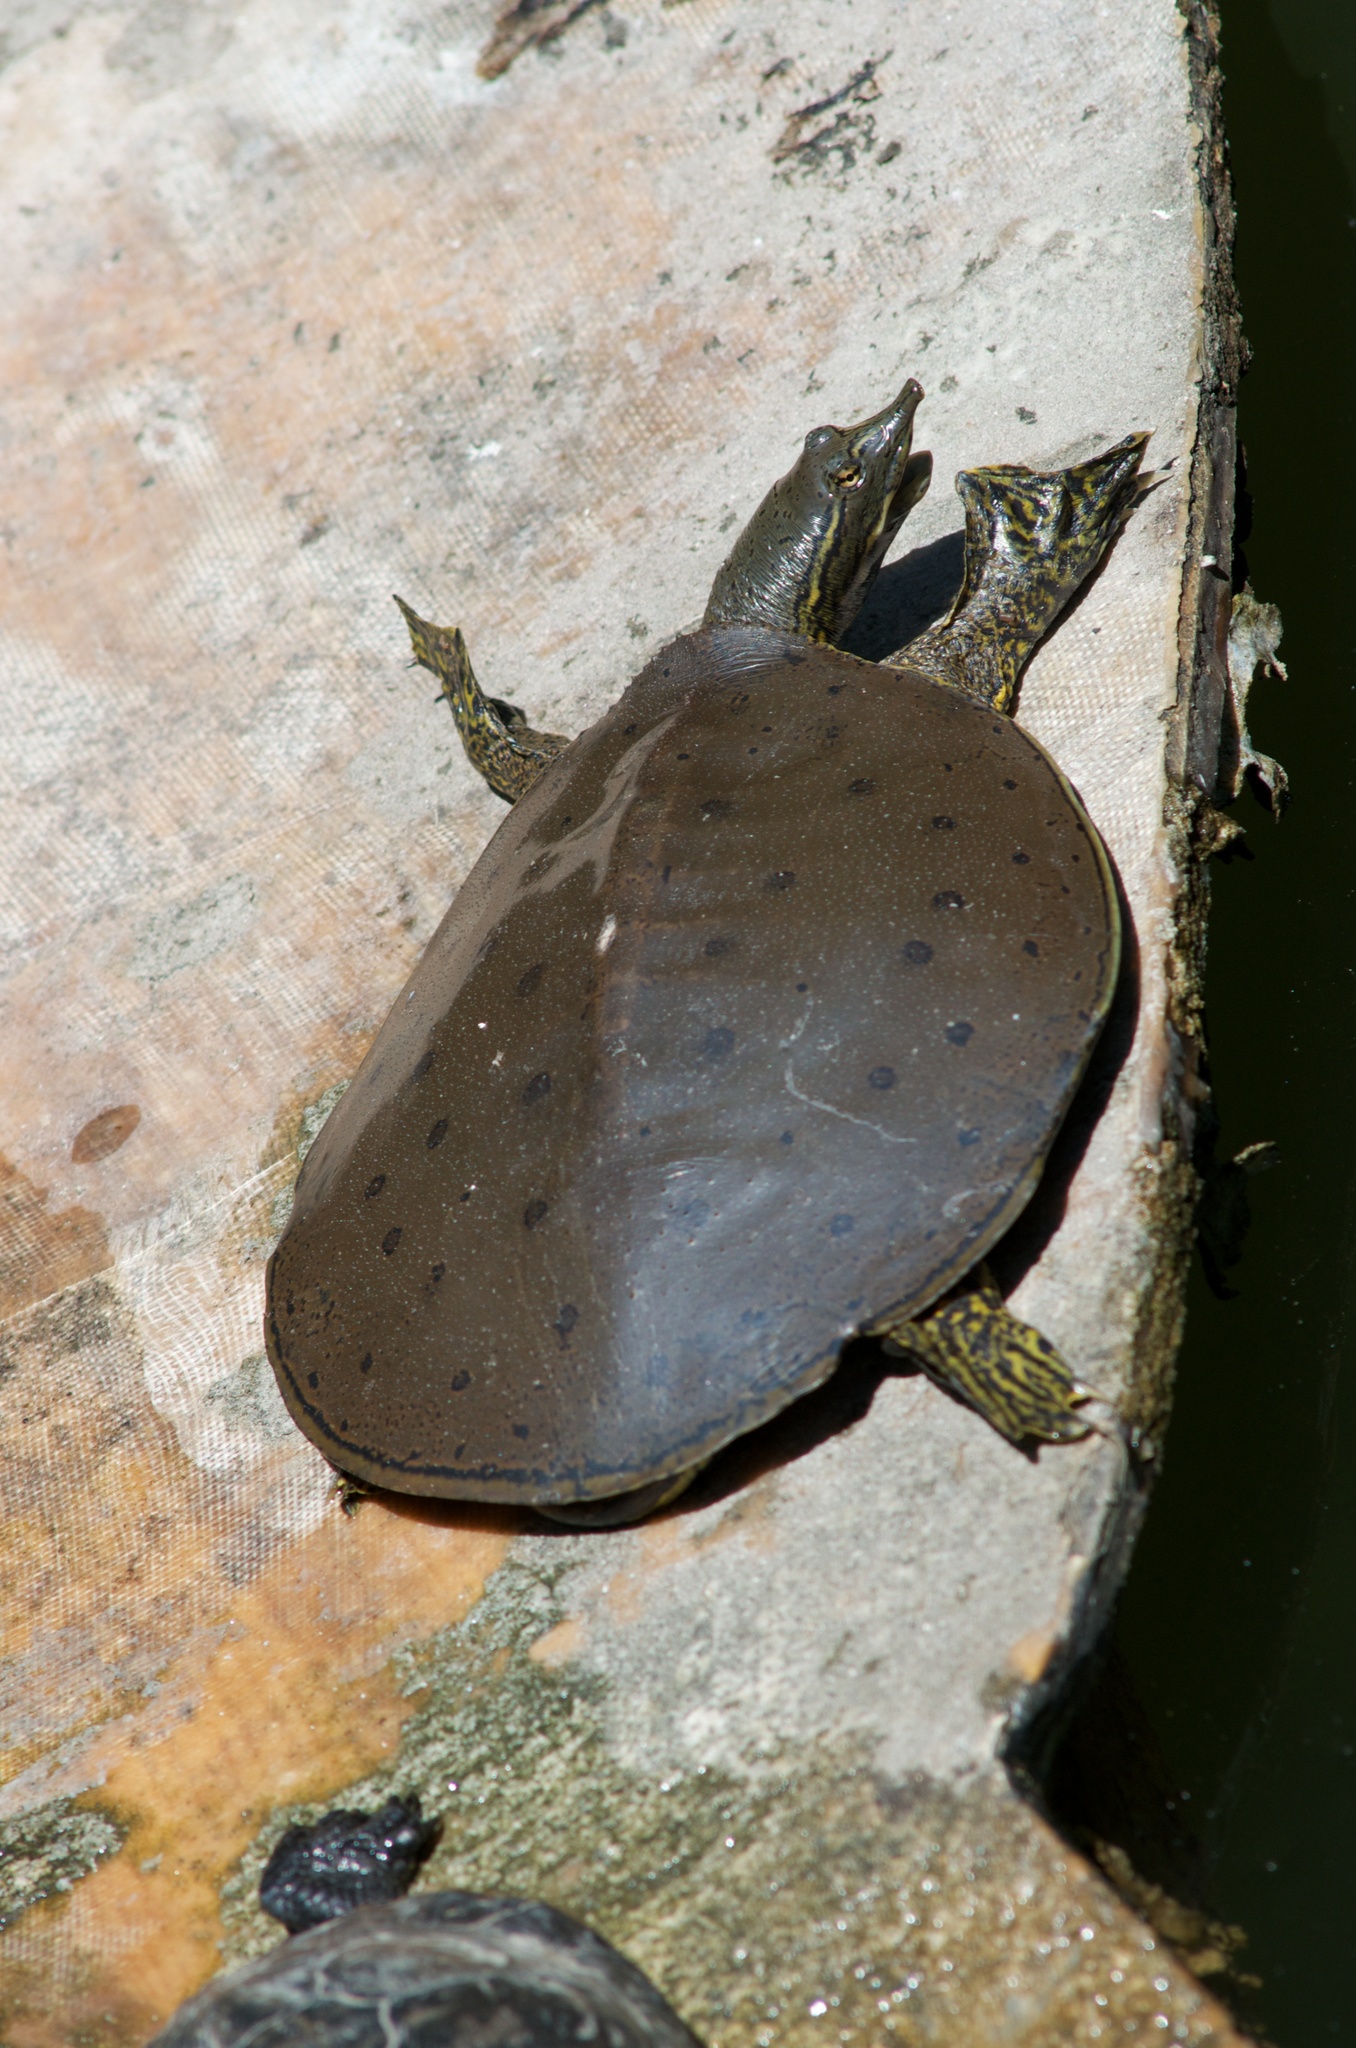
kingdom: Animalia
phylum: Chordata
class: Testudines
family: Trionychidae
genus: Apalone
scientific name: Apalone spinifera
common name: Spiny softshell turtle
